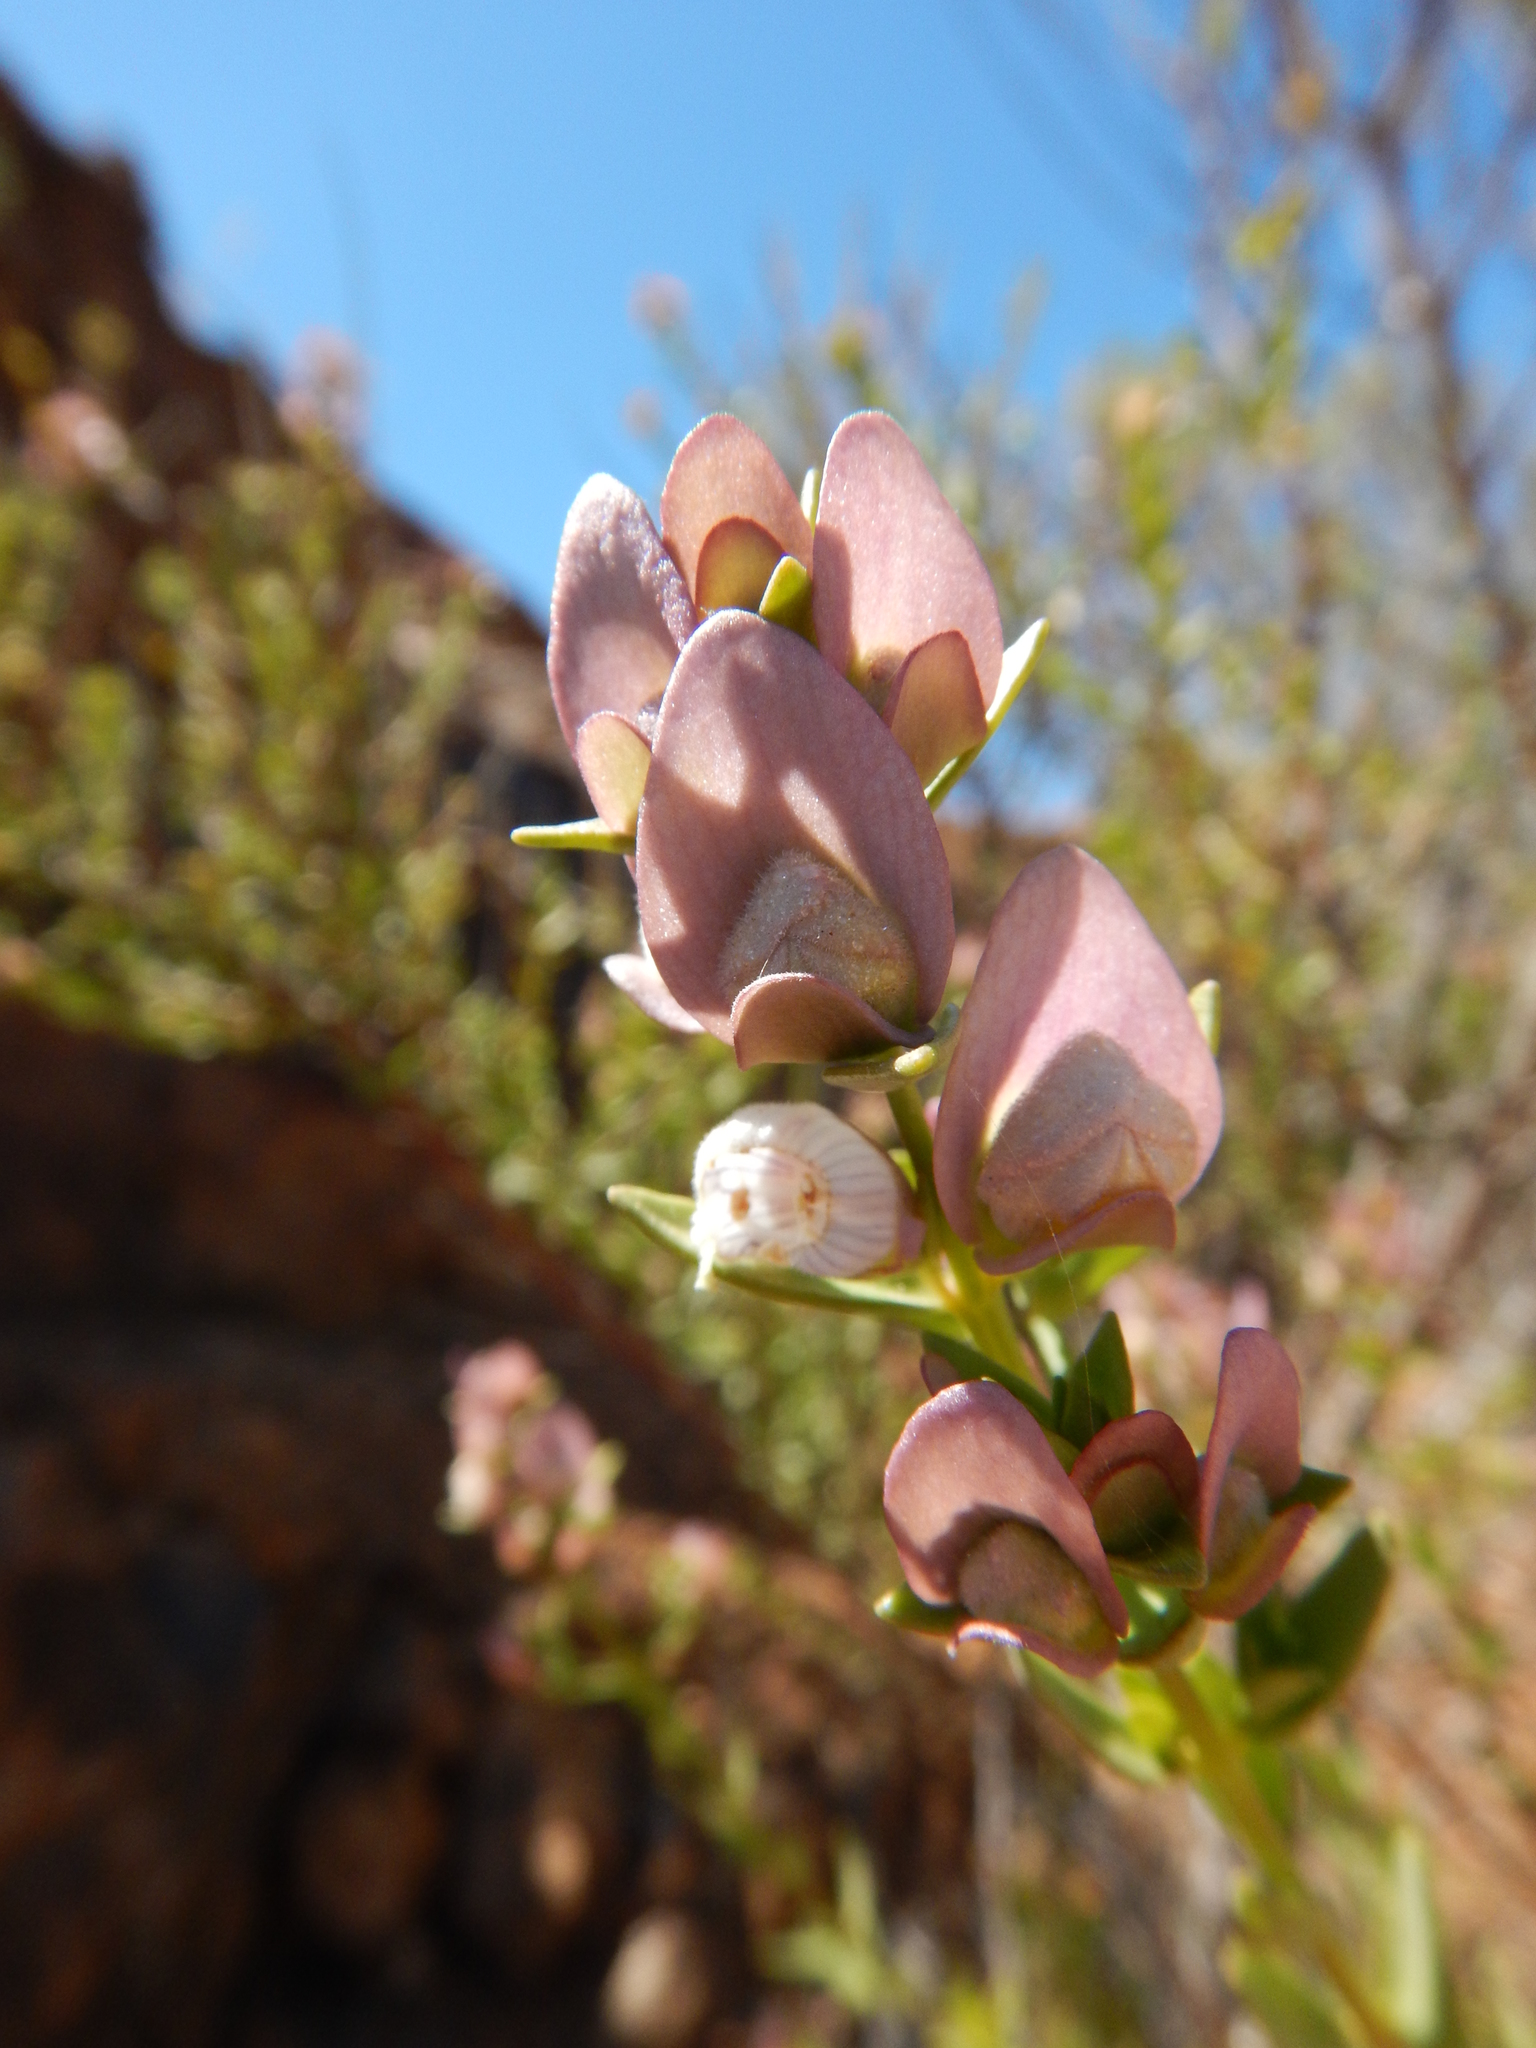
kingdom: Plantae
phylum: Tracheophyta
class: Magnoliopsida
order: Lamiales
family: Lamiaceae
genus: Prostanthera
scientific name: Prostanthera striatiflora
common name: Jockey's-cap
